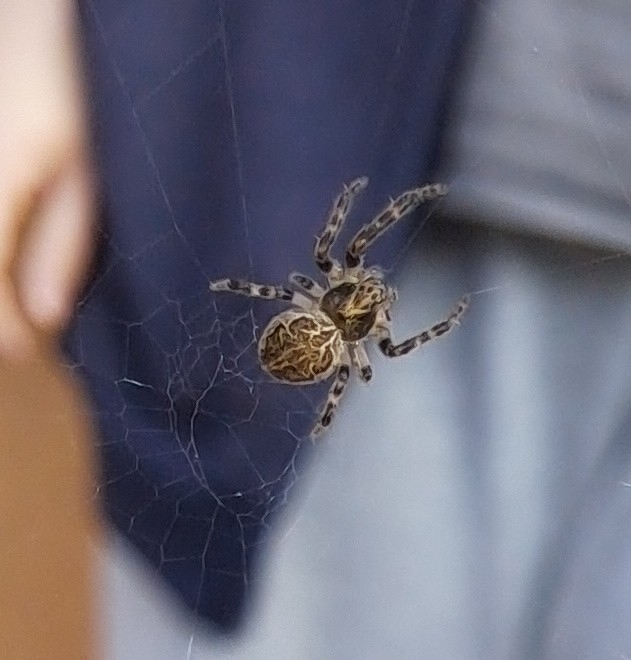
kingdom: Animalia
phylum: Arthropoda
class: Arachnida
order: Araneae
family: Araneidae
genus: Larinioides
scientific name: Larinioides sclopetarius
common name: Bridge orbweaver
